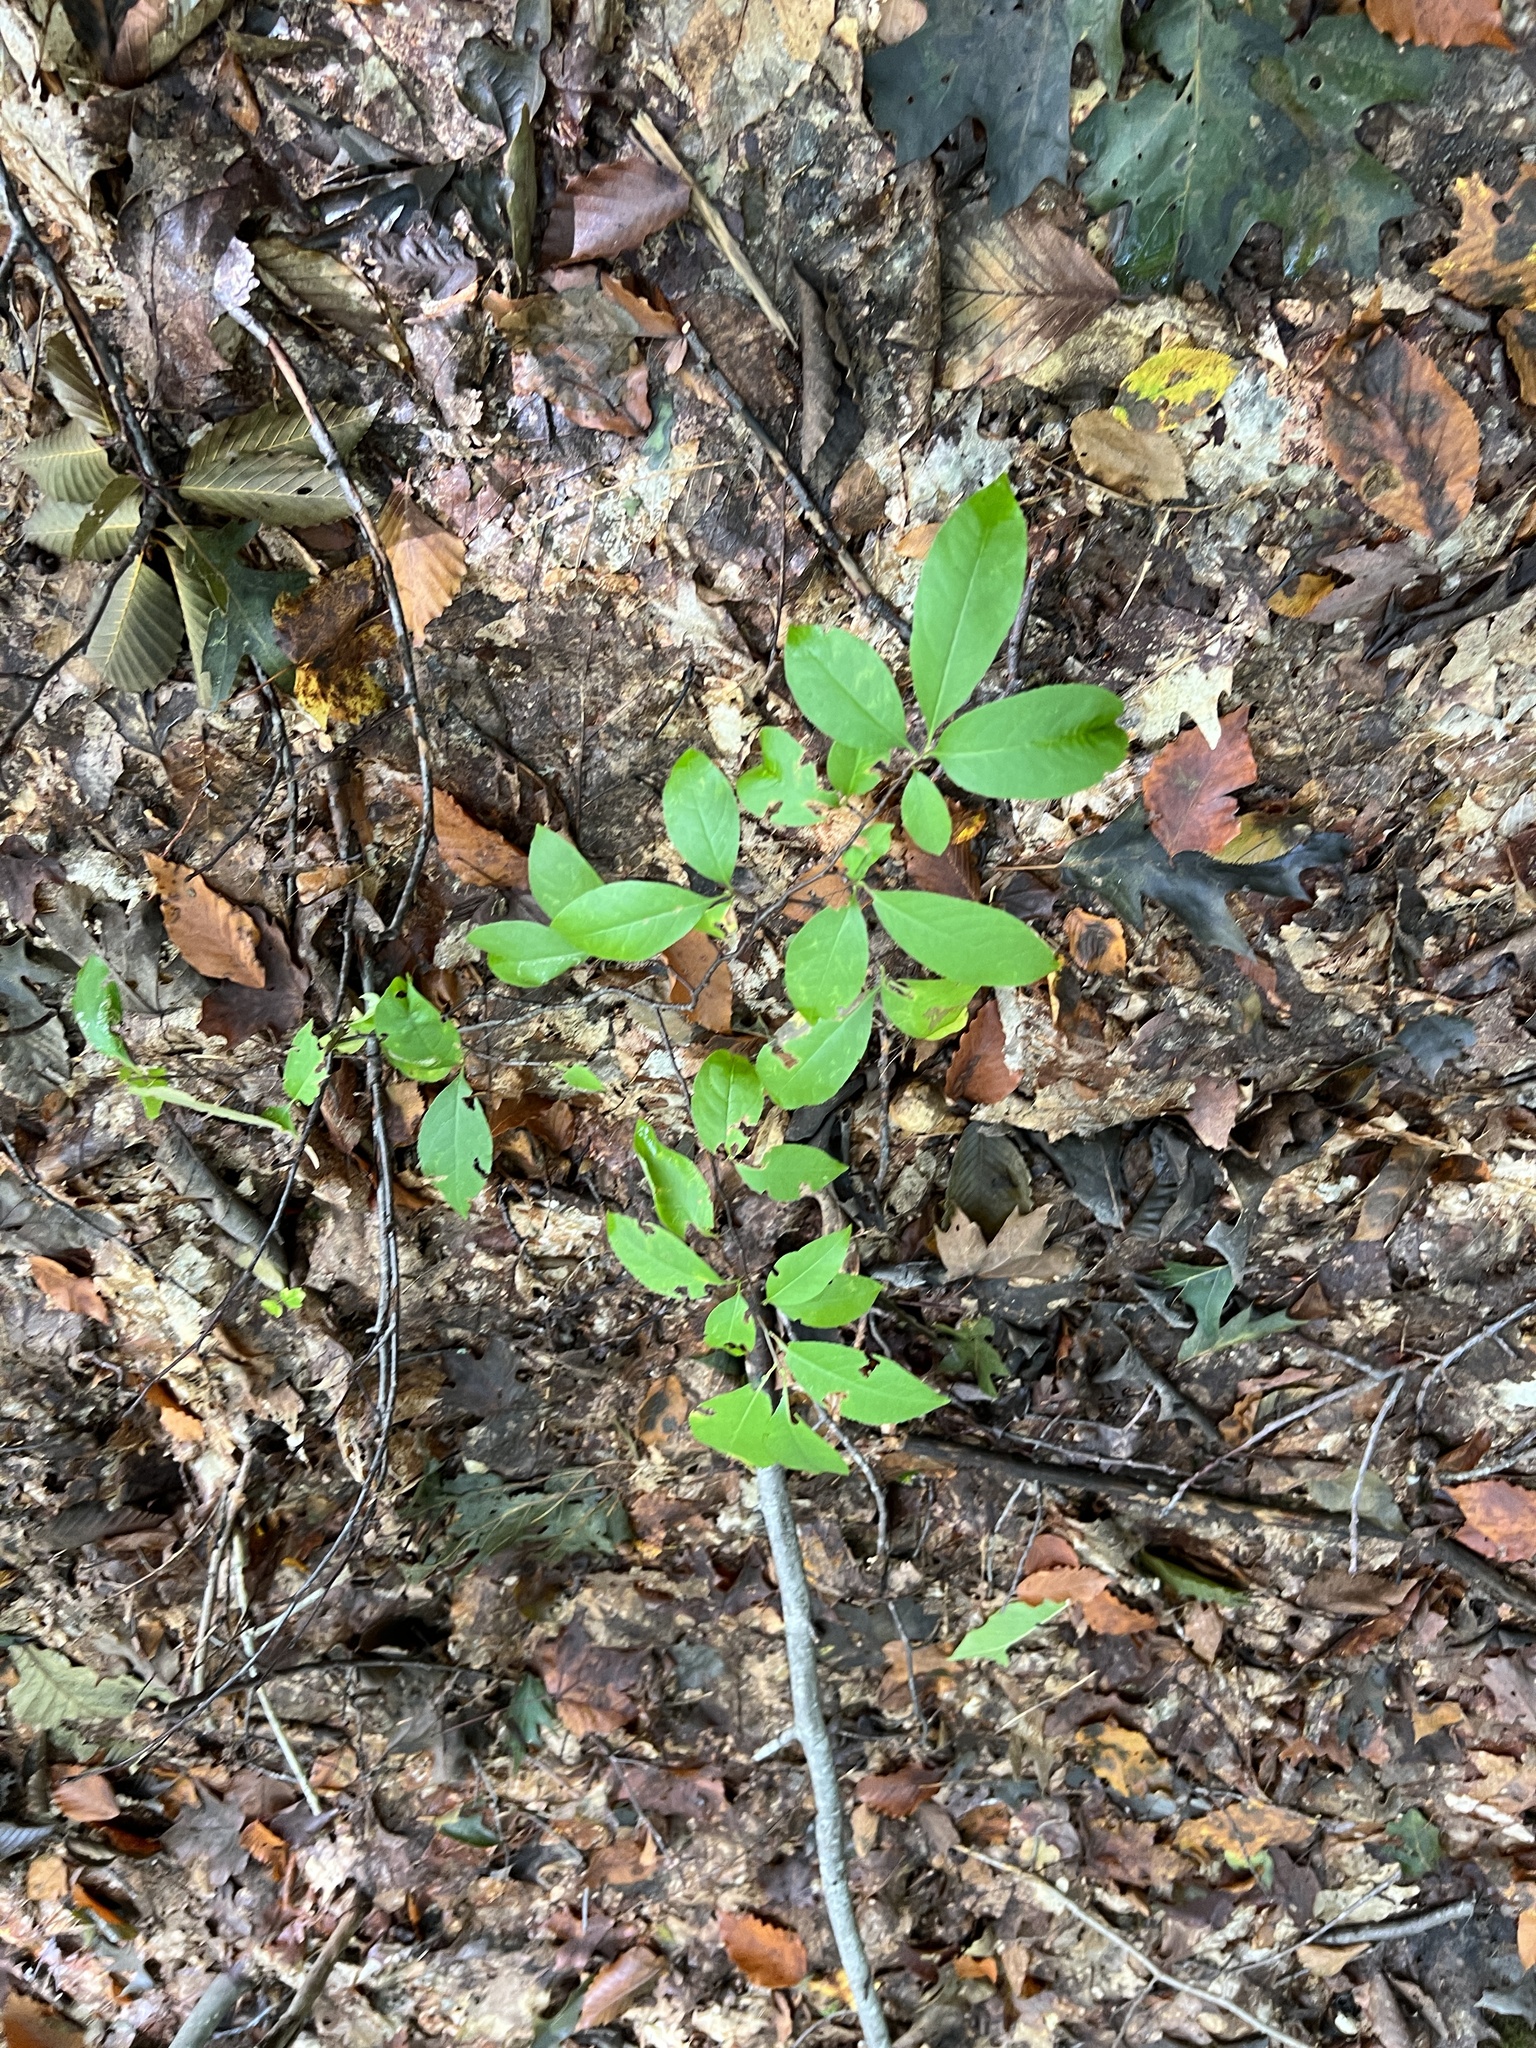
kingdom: Plantae
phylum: Tracheophyta
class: Magnoliopsida
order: Rosales
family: Rosaceae
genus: Prunus
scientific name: Prunus serotina
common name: Black cherry
